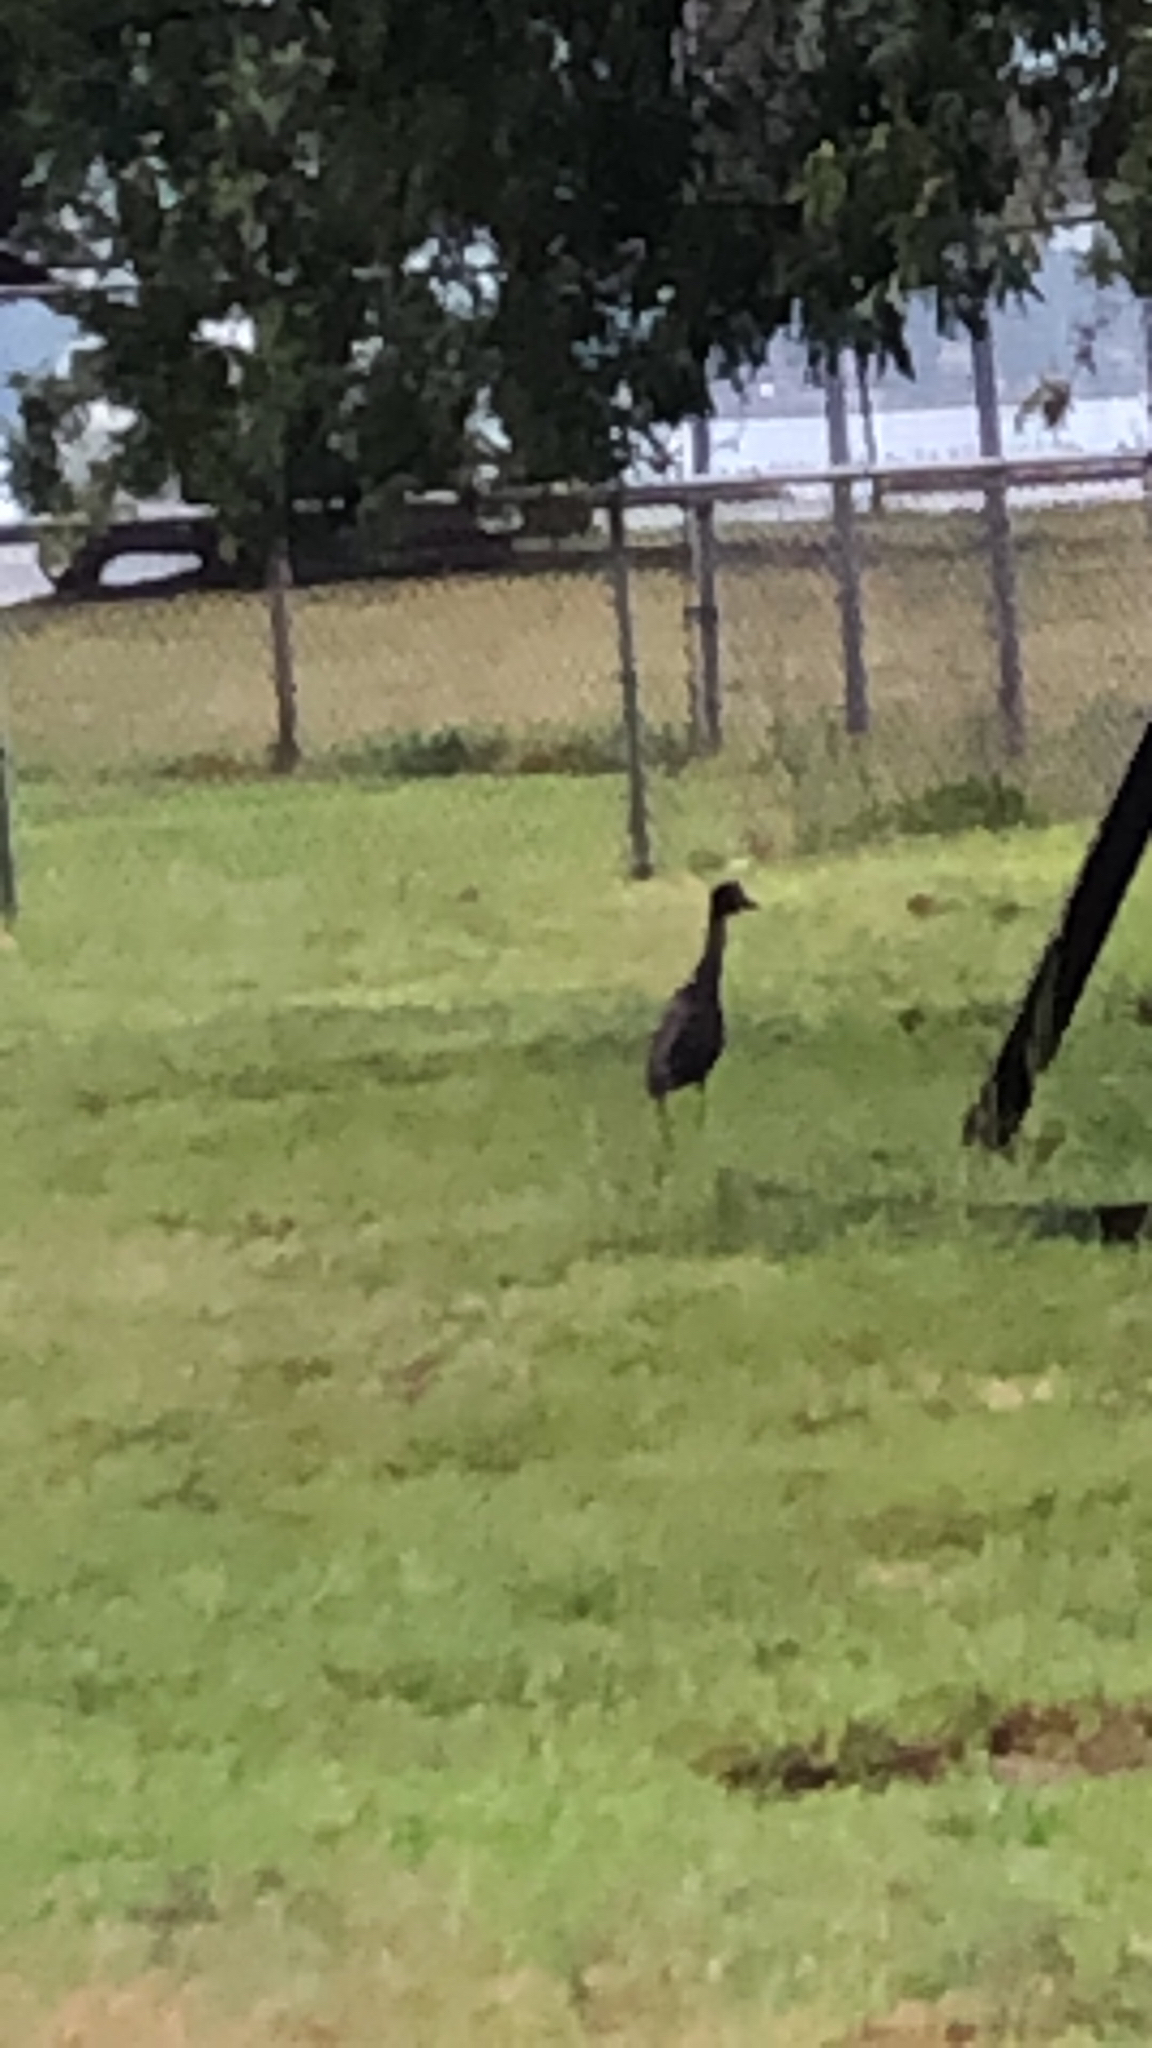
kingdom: Animalia
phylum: Chordata
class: Aves
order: Pelecaniformes
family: Ardeidae
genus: Nyctanassa
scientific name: Nyctanassa violacea
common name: Yellow-crowned night heron
